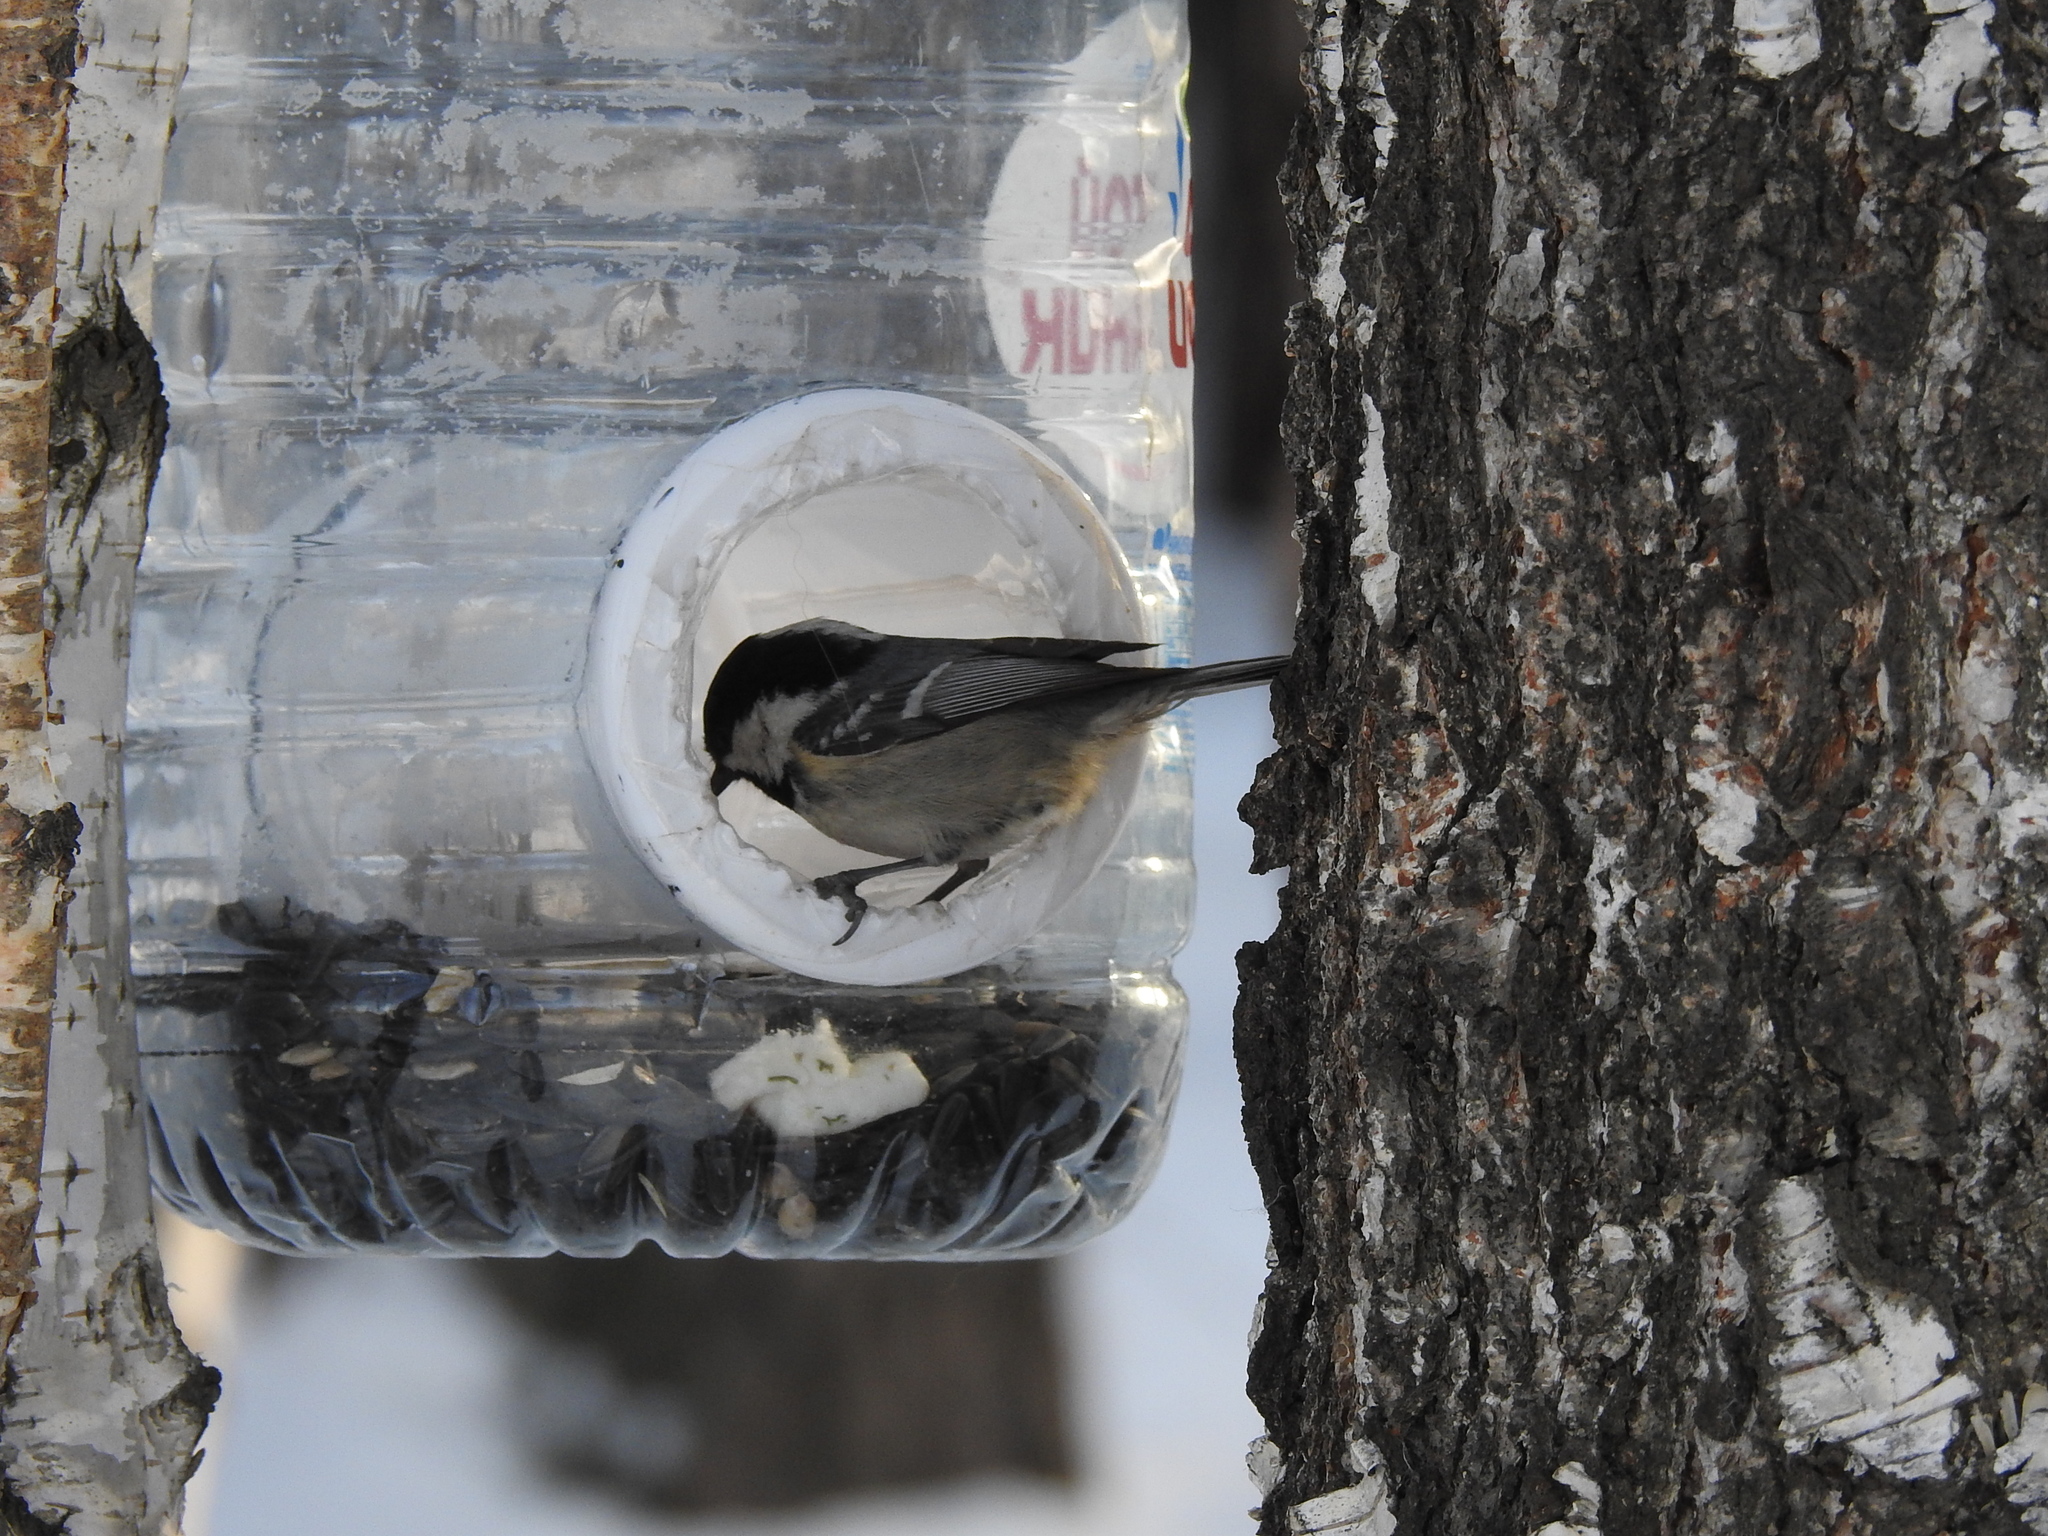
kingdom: Animalia
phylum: Chordata
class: Aves
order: Passeriformes
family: Paridae
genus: Periparus
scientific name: Periparus ater
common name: Coal tit
